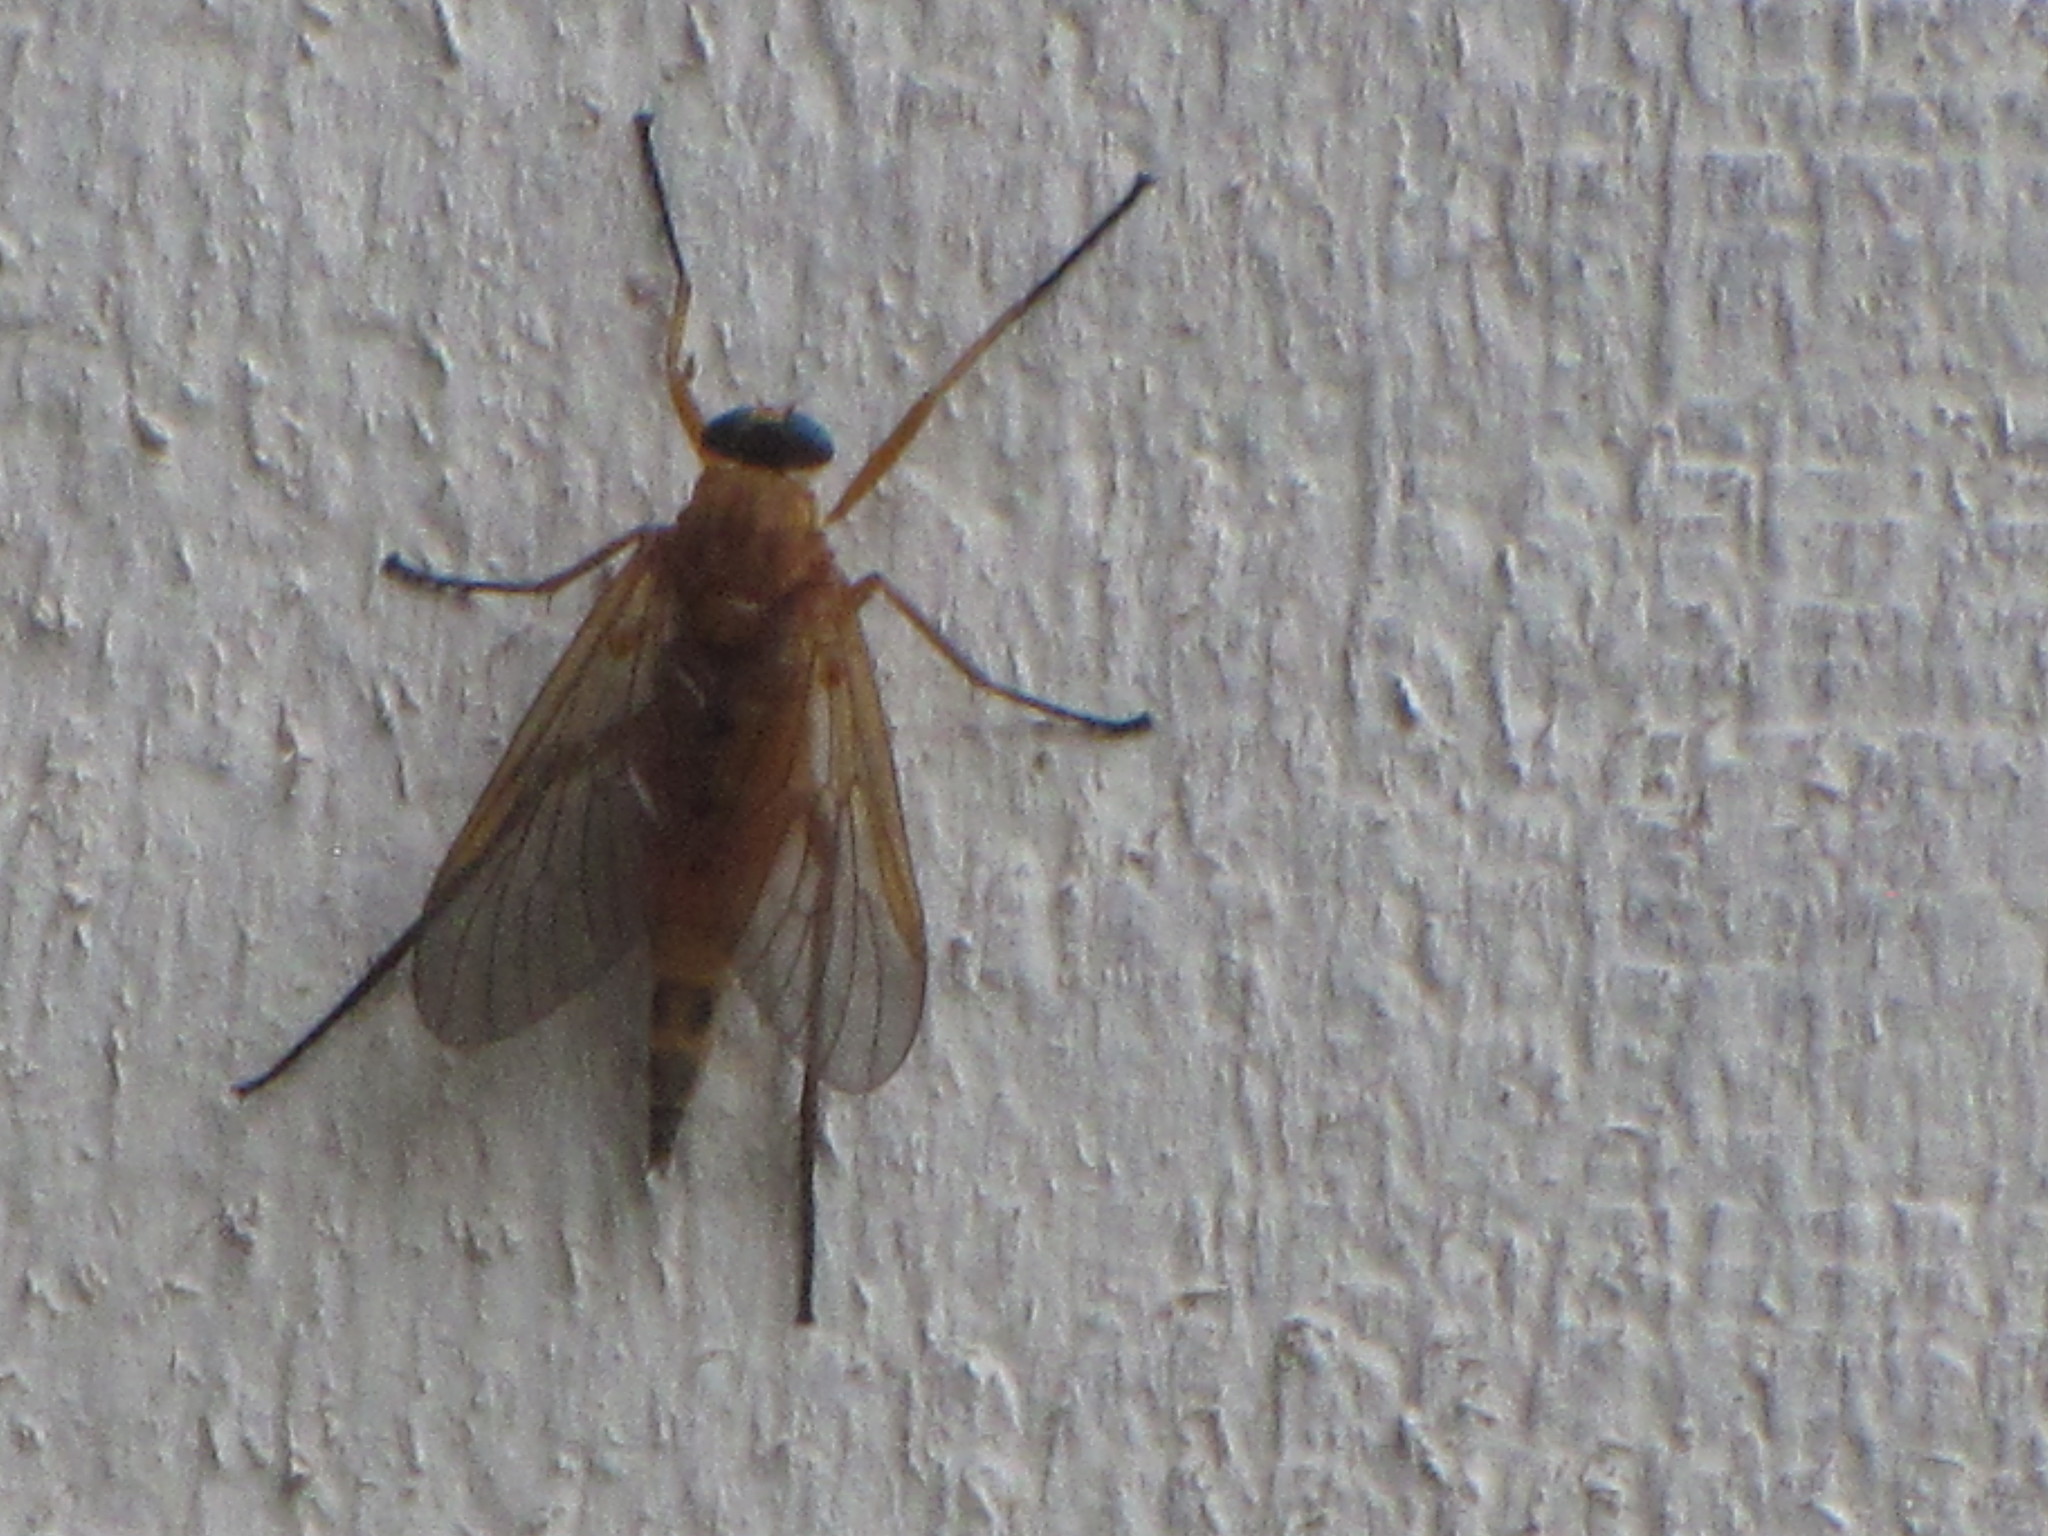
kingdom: Animalia
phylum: Arthropoda
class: Insecta
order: Diptera
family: Rhagionidae
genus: Rhagio
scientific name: Rhagio tringaria
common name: Marsh snipefly
